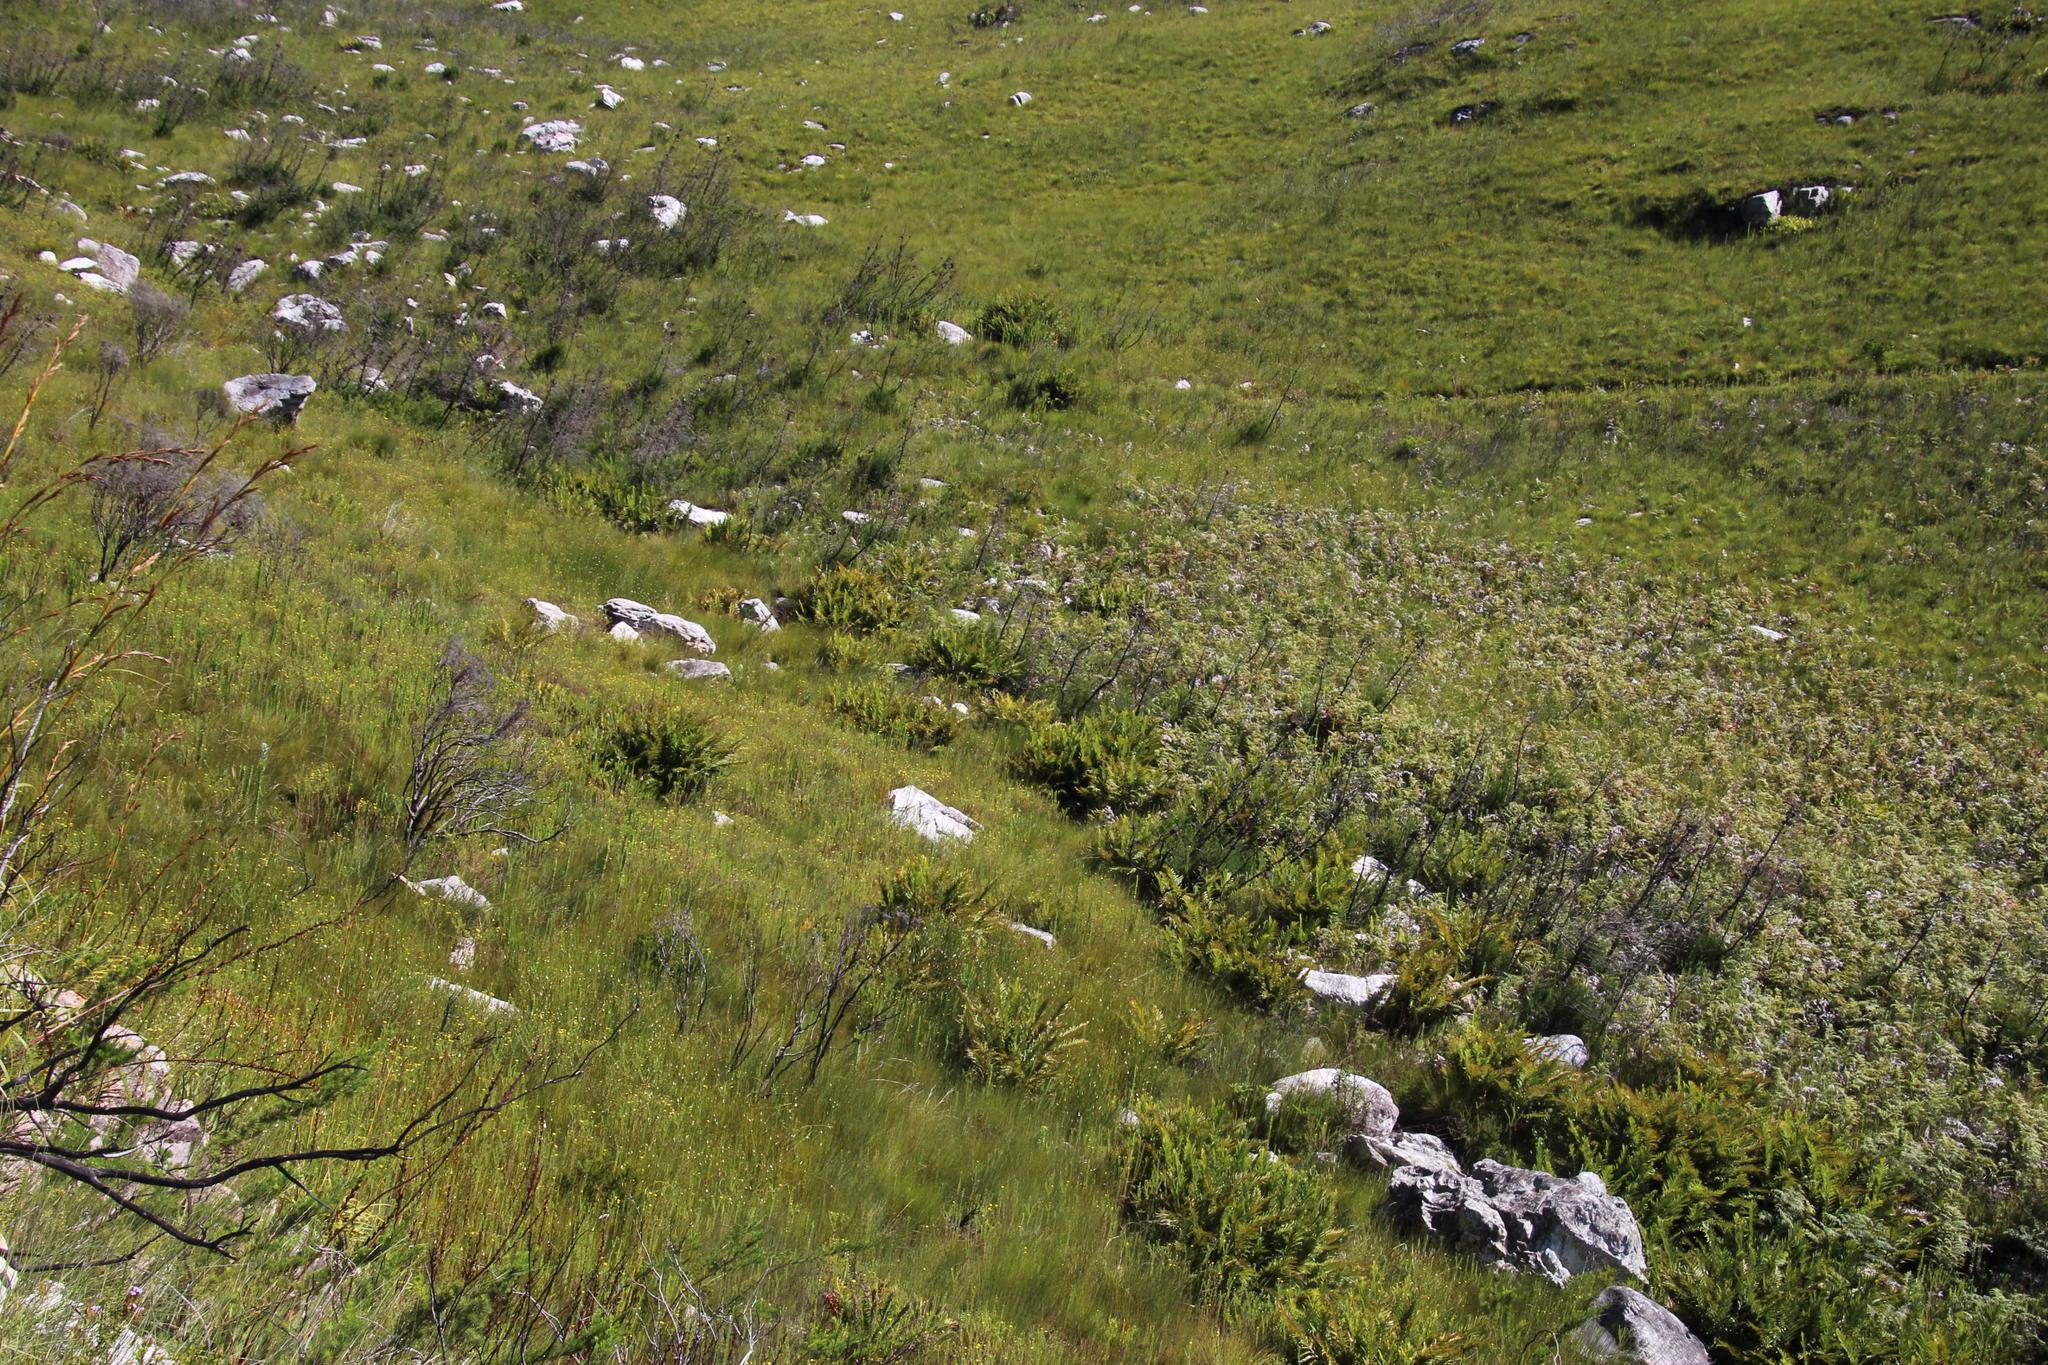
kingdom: Plantae
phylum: Tracheophyta
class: Polypodiopsida
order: Osmundales
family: Osmundaceae
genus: Todea
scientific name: Todea barbara
